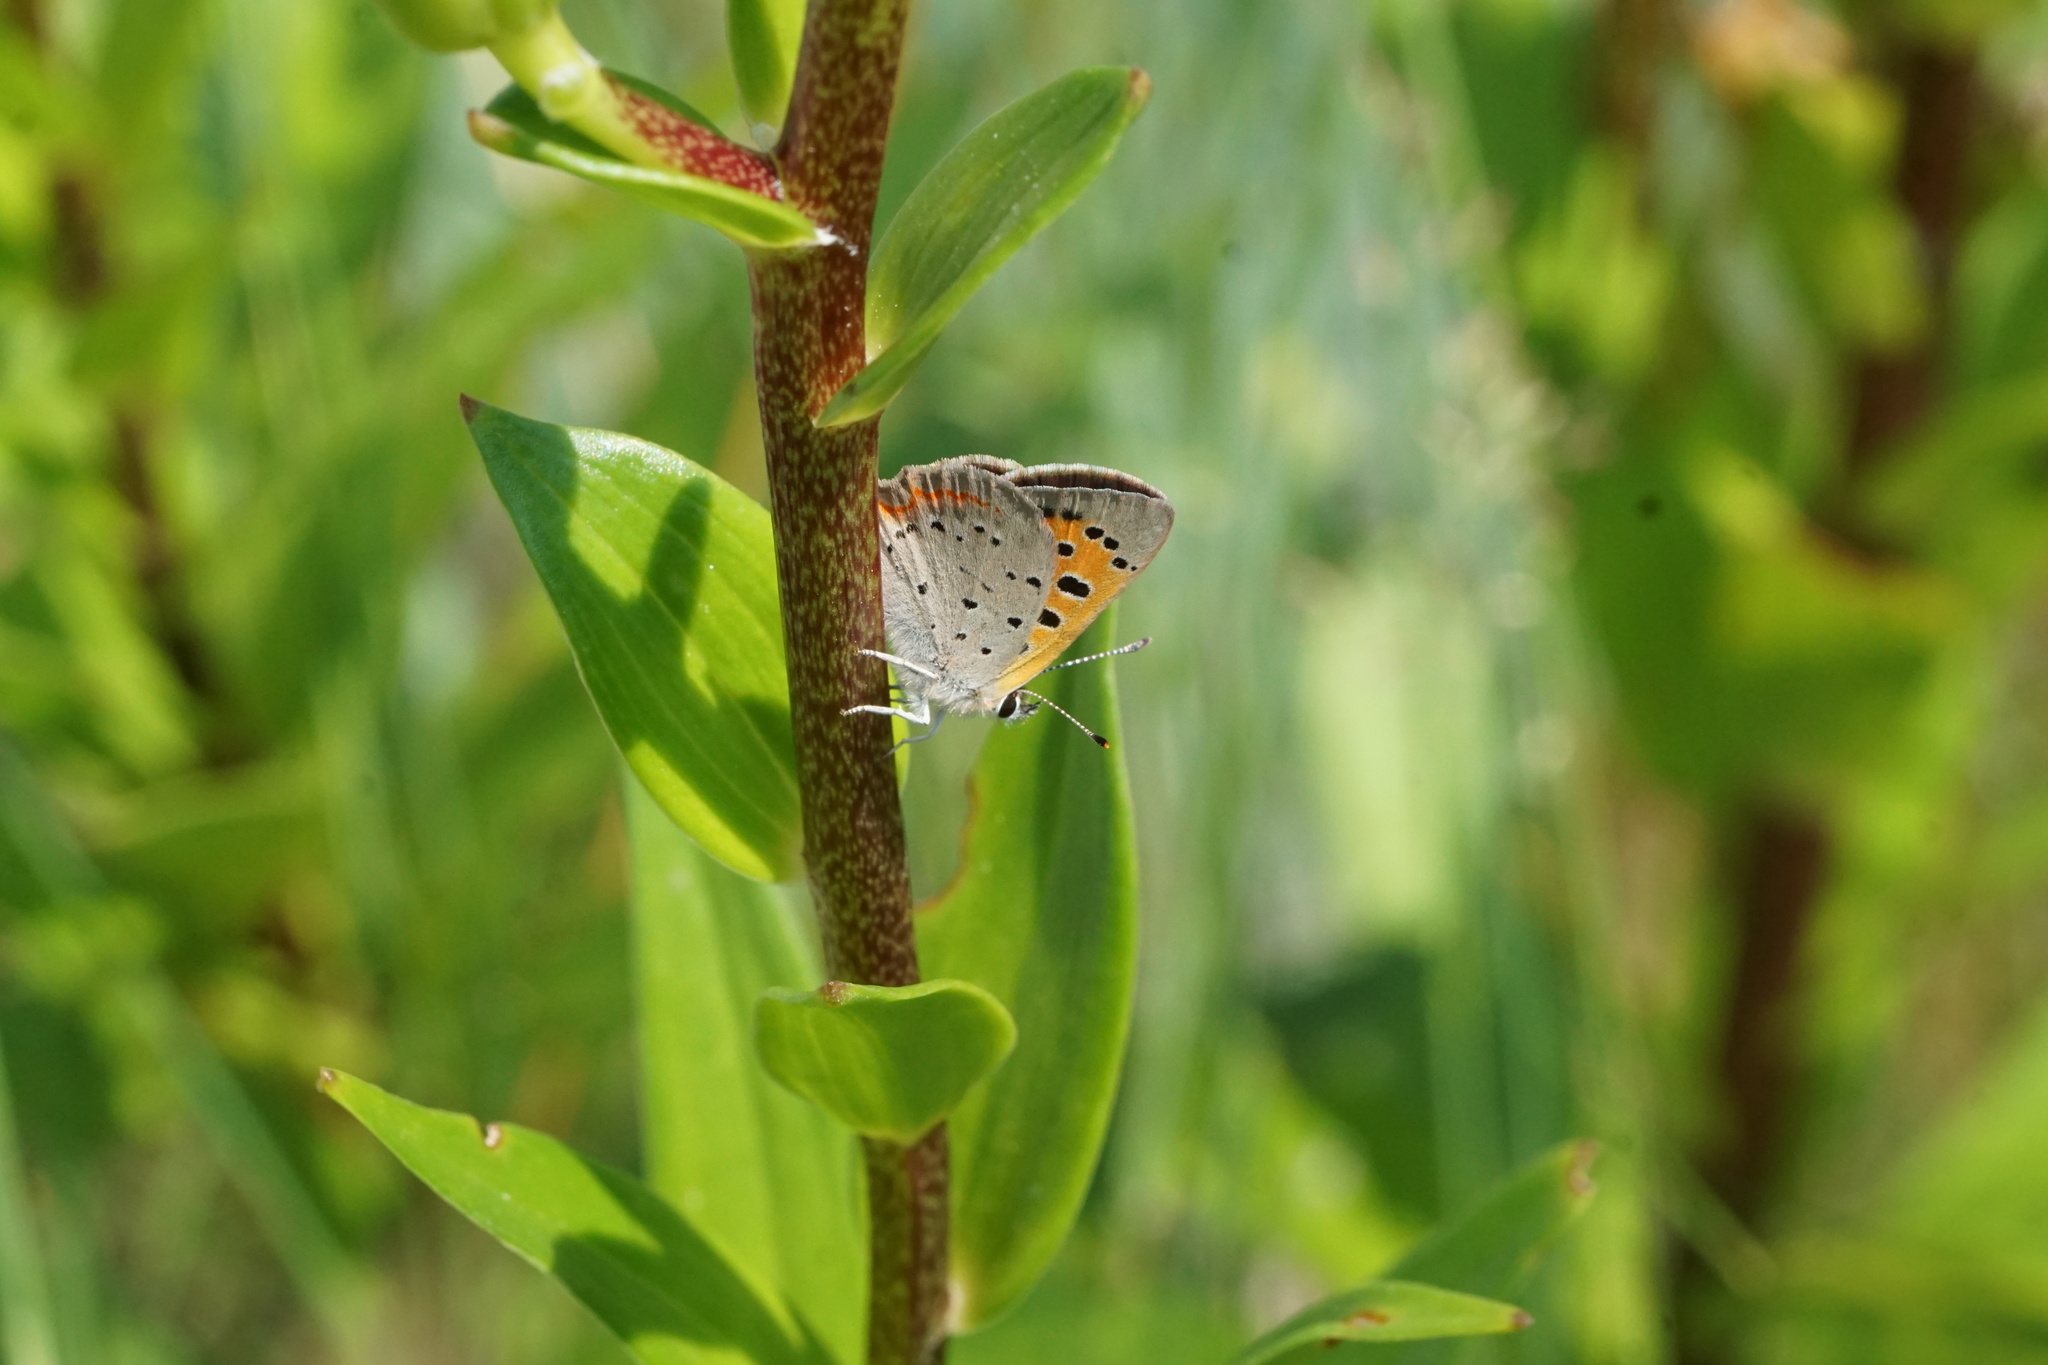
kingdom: Animalia
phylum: Arthropoda
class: Insecta
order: Lepidoptera
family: Lycaenidae
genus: Lycaena
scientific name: Lycaena hypophlaeas
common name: American copper
